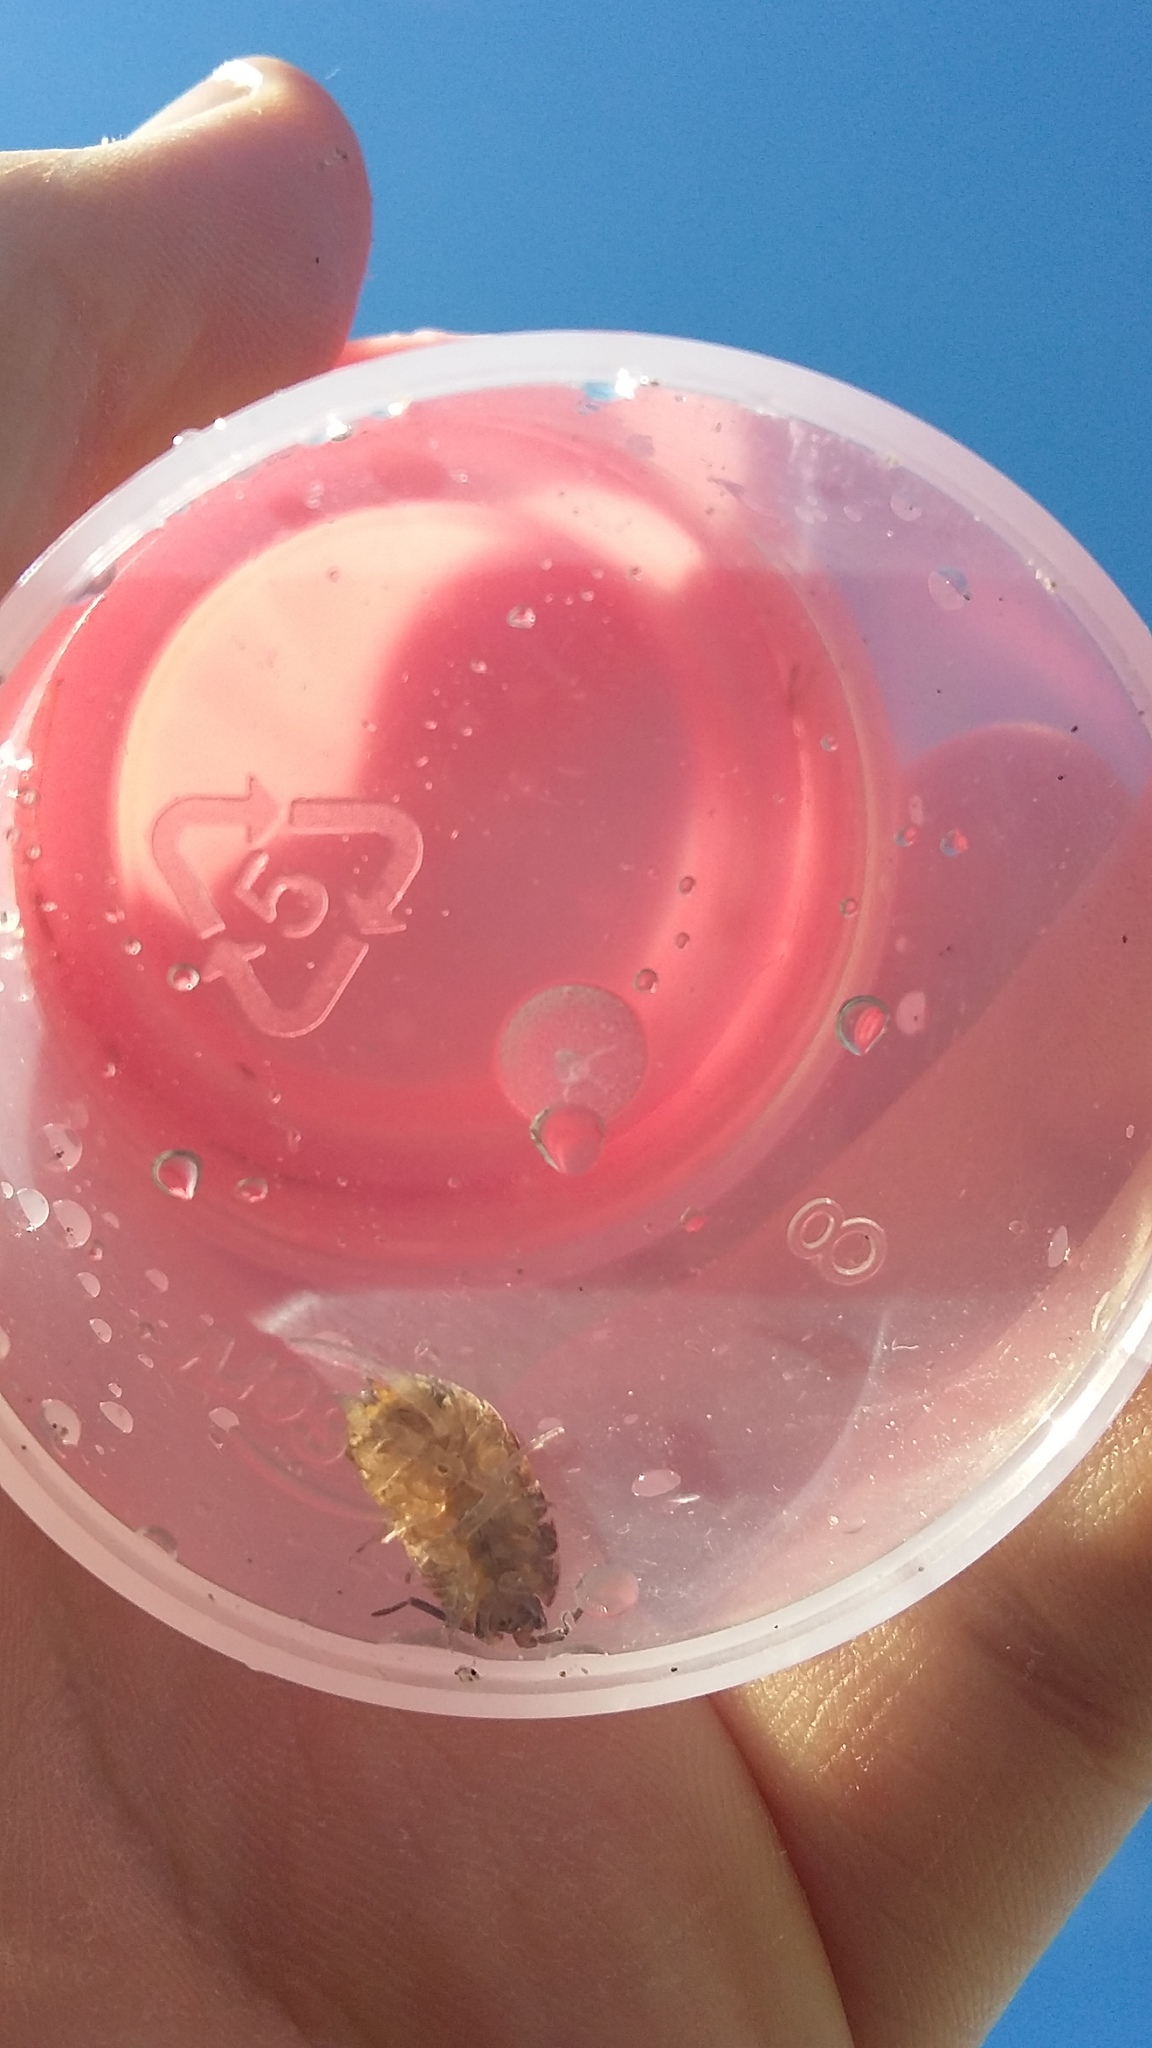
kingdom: Animalia
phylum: Arthropoda
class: Malacostraca
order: Isopoda
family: Porcellionidae
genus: Porcellio
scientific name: Porcellio scaber
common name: Common rough woodlouse
